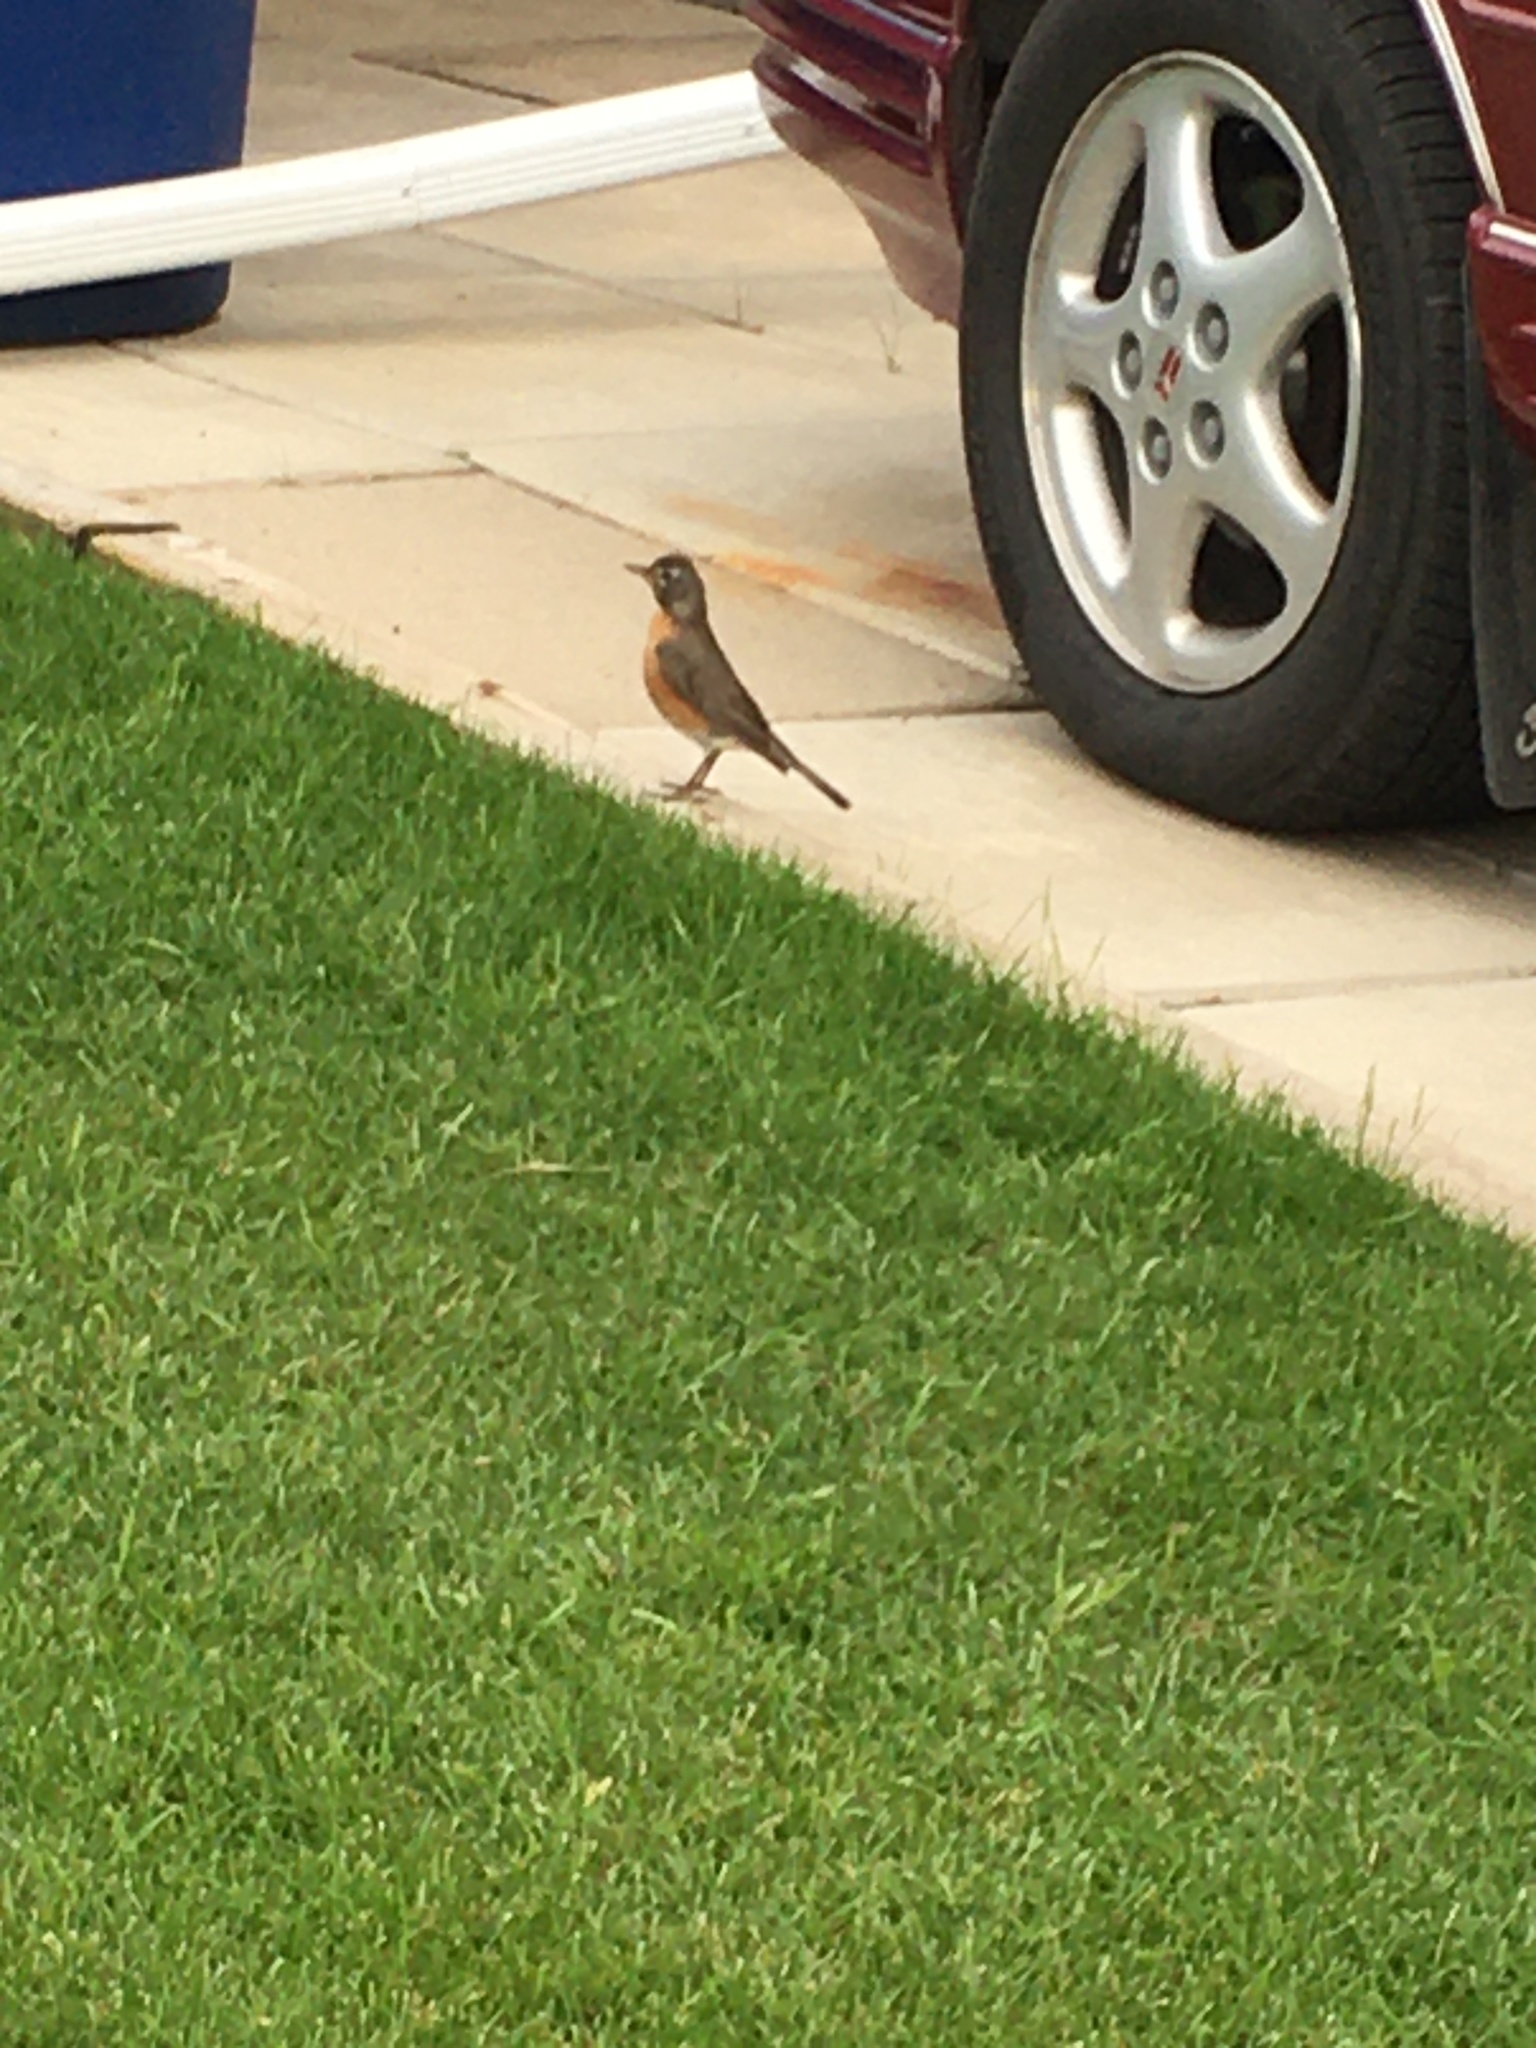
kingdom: Animalia
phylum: Chordata
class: Aves
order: Passeriformes
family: Turdidae
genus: Turdus
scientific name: Turdus migratorius
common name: American robin
